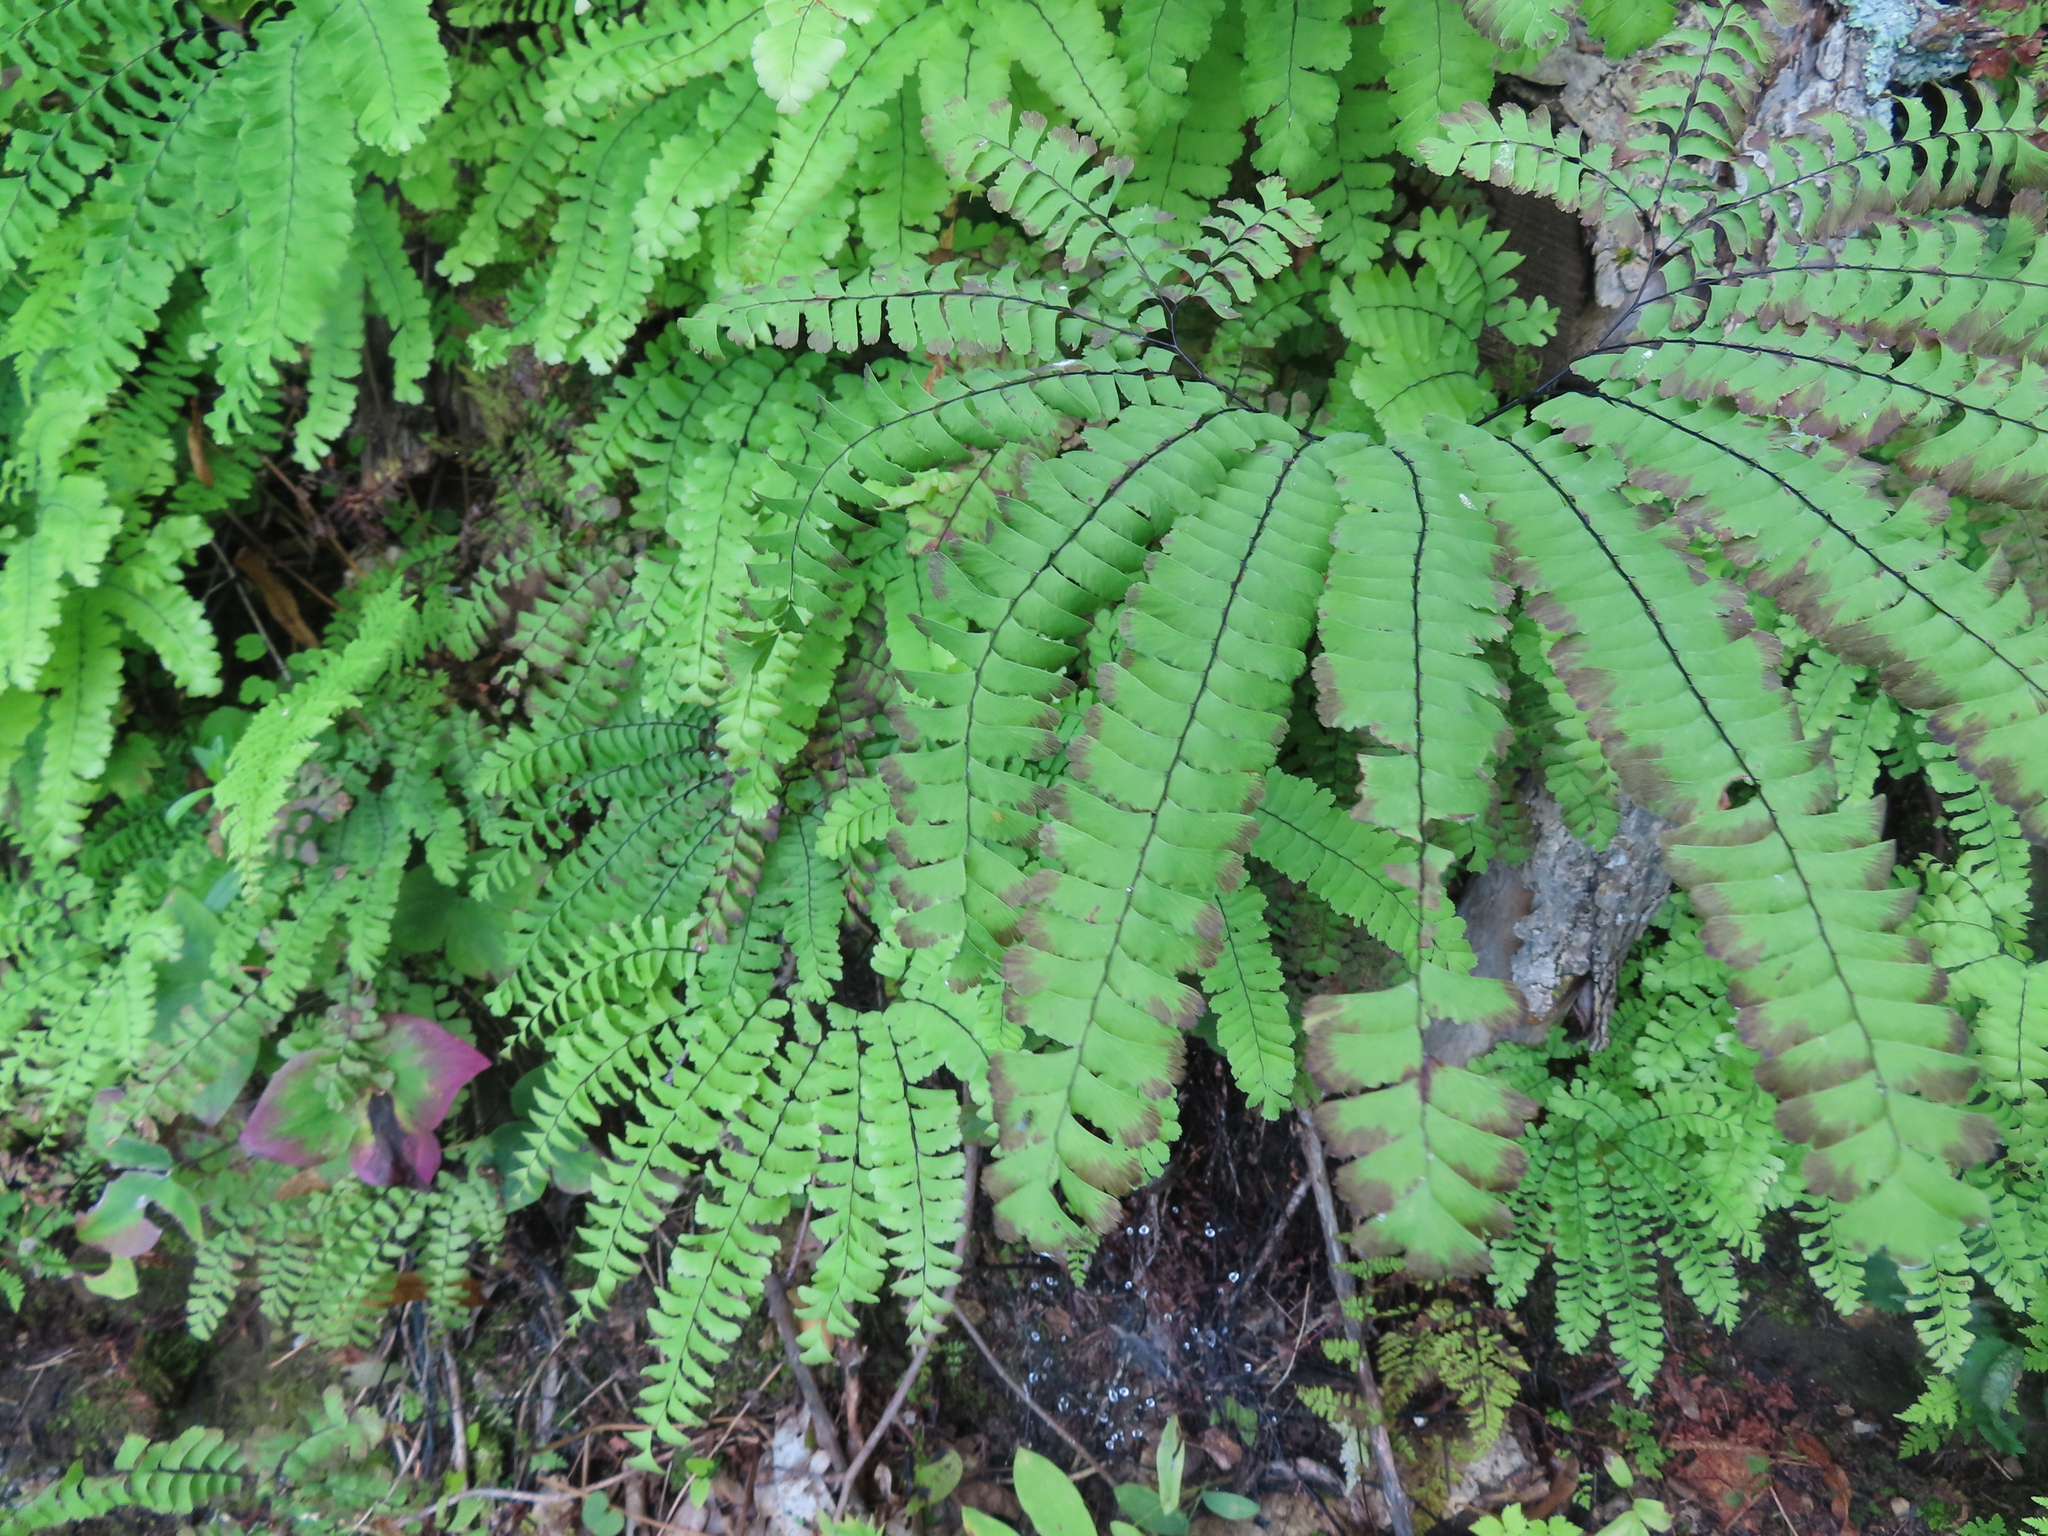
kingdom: Plantae
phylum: Tracheophyta
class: Polypodiopsida
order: Polypodiales
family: Pteridaceae
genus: Adiantum
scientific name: Adiantum pedatum
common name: Five-finger fern
